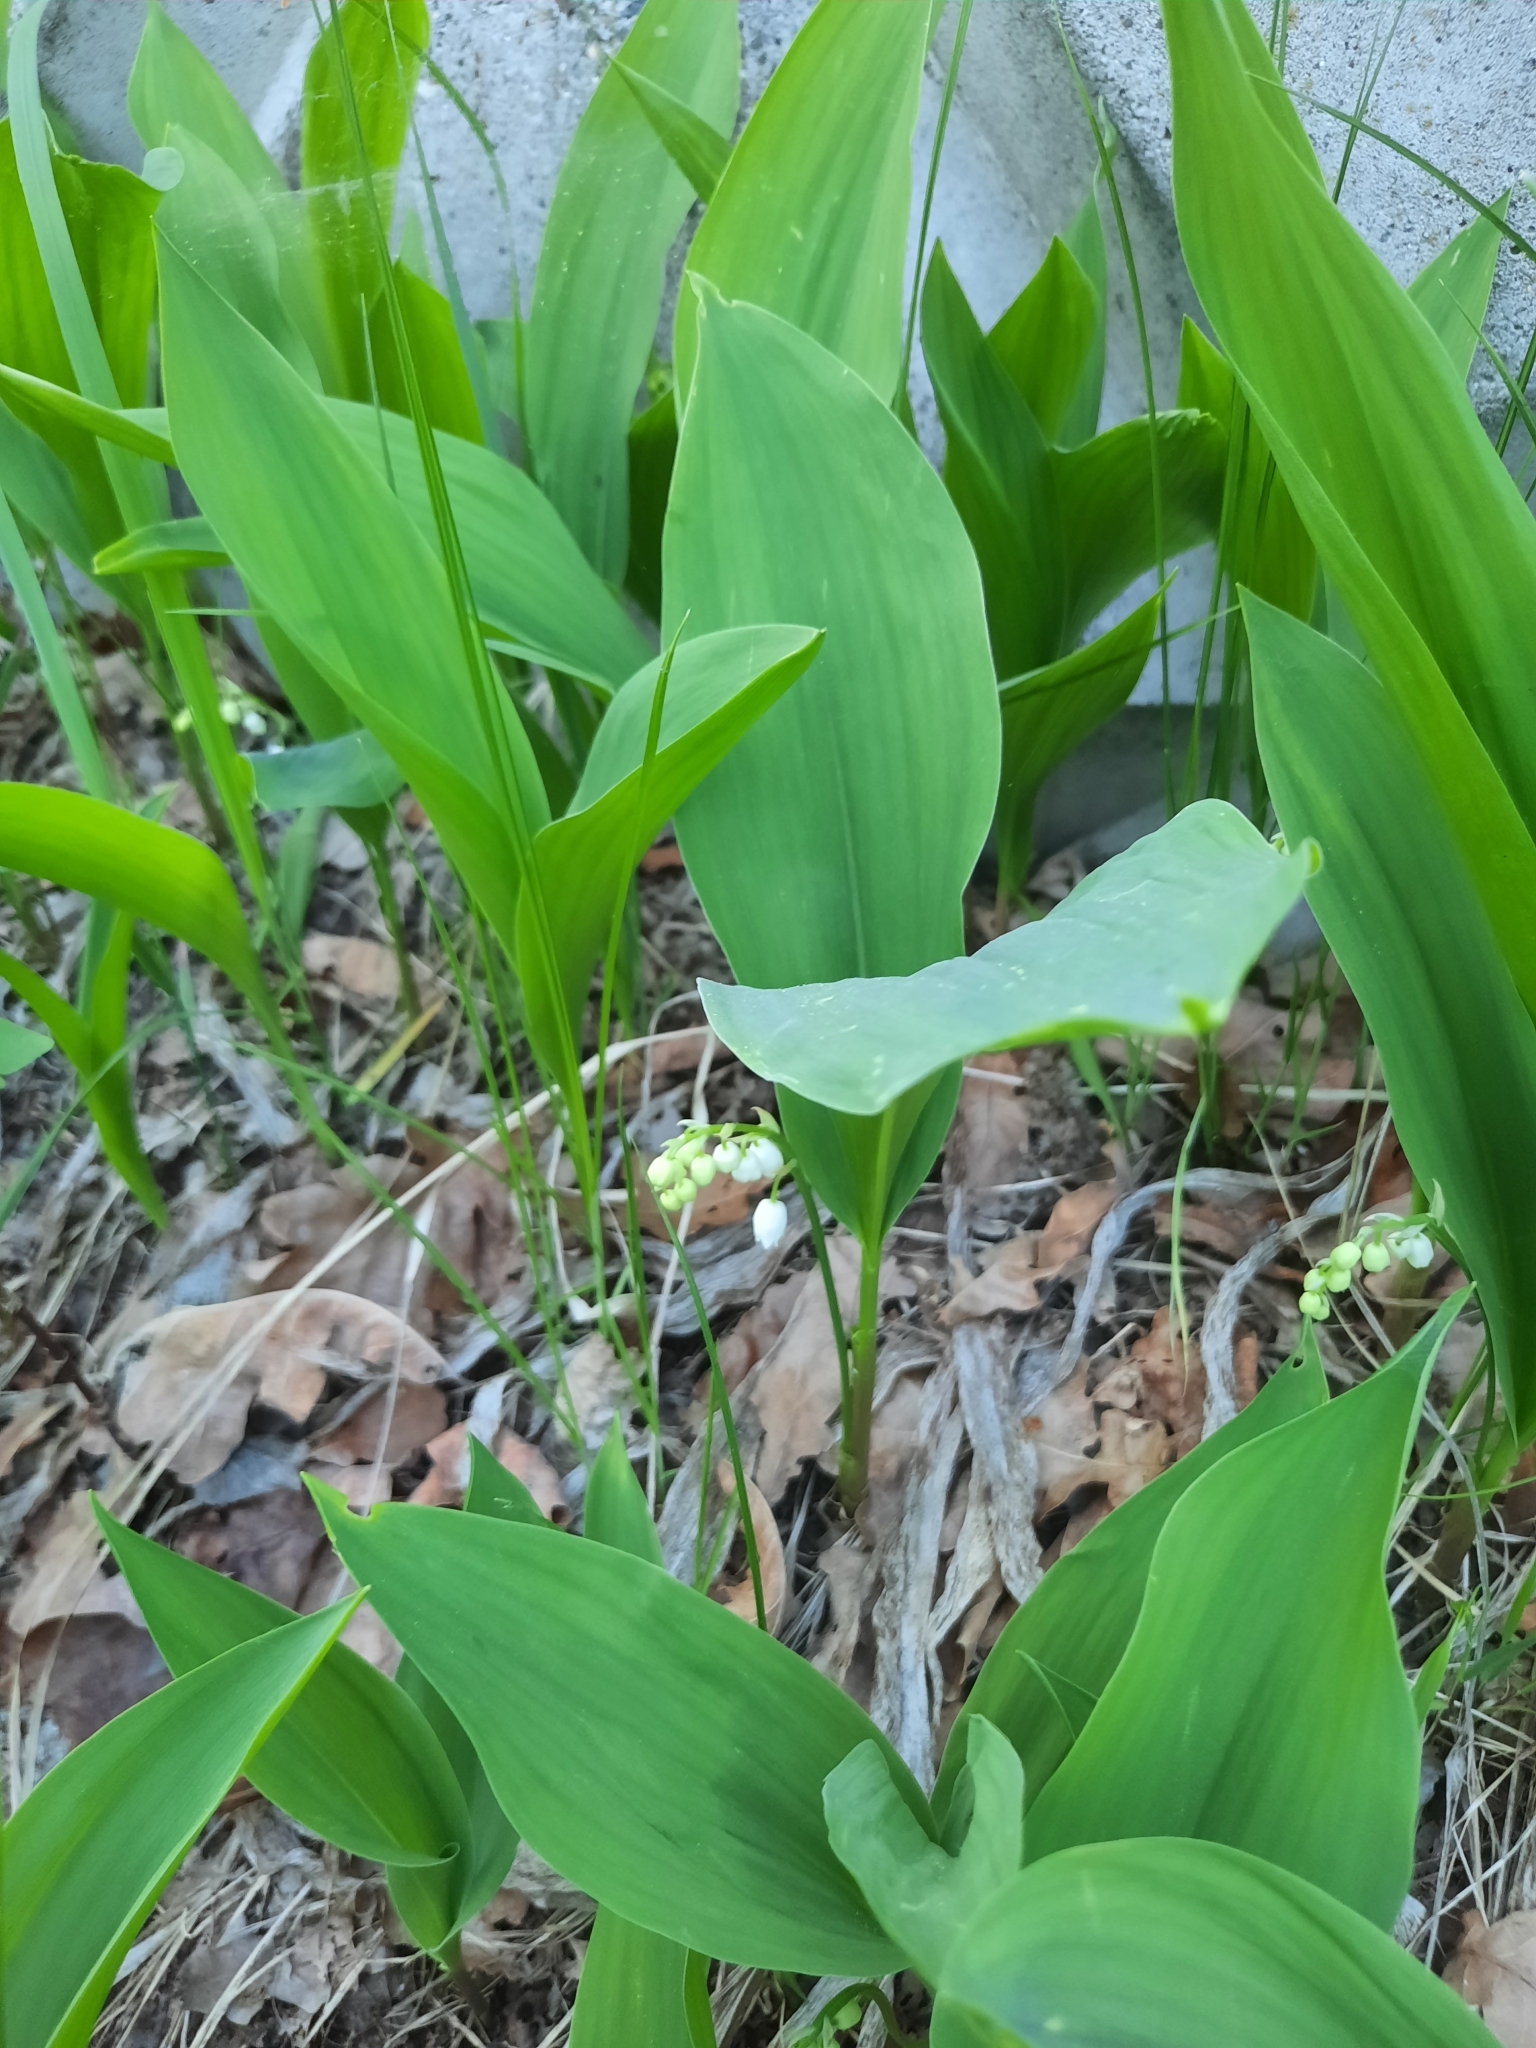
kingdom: Plantae
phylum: Tracheophyta
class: Liliopsida
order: Asparagales
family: Asparagaceae
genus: Convallaria
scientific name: Convallaria majalis
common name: Lily-of-the-valley
